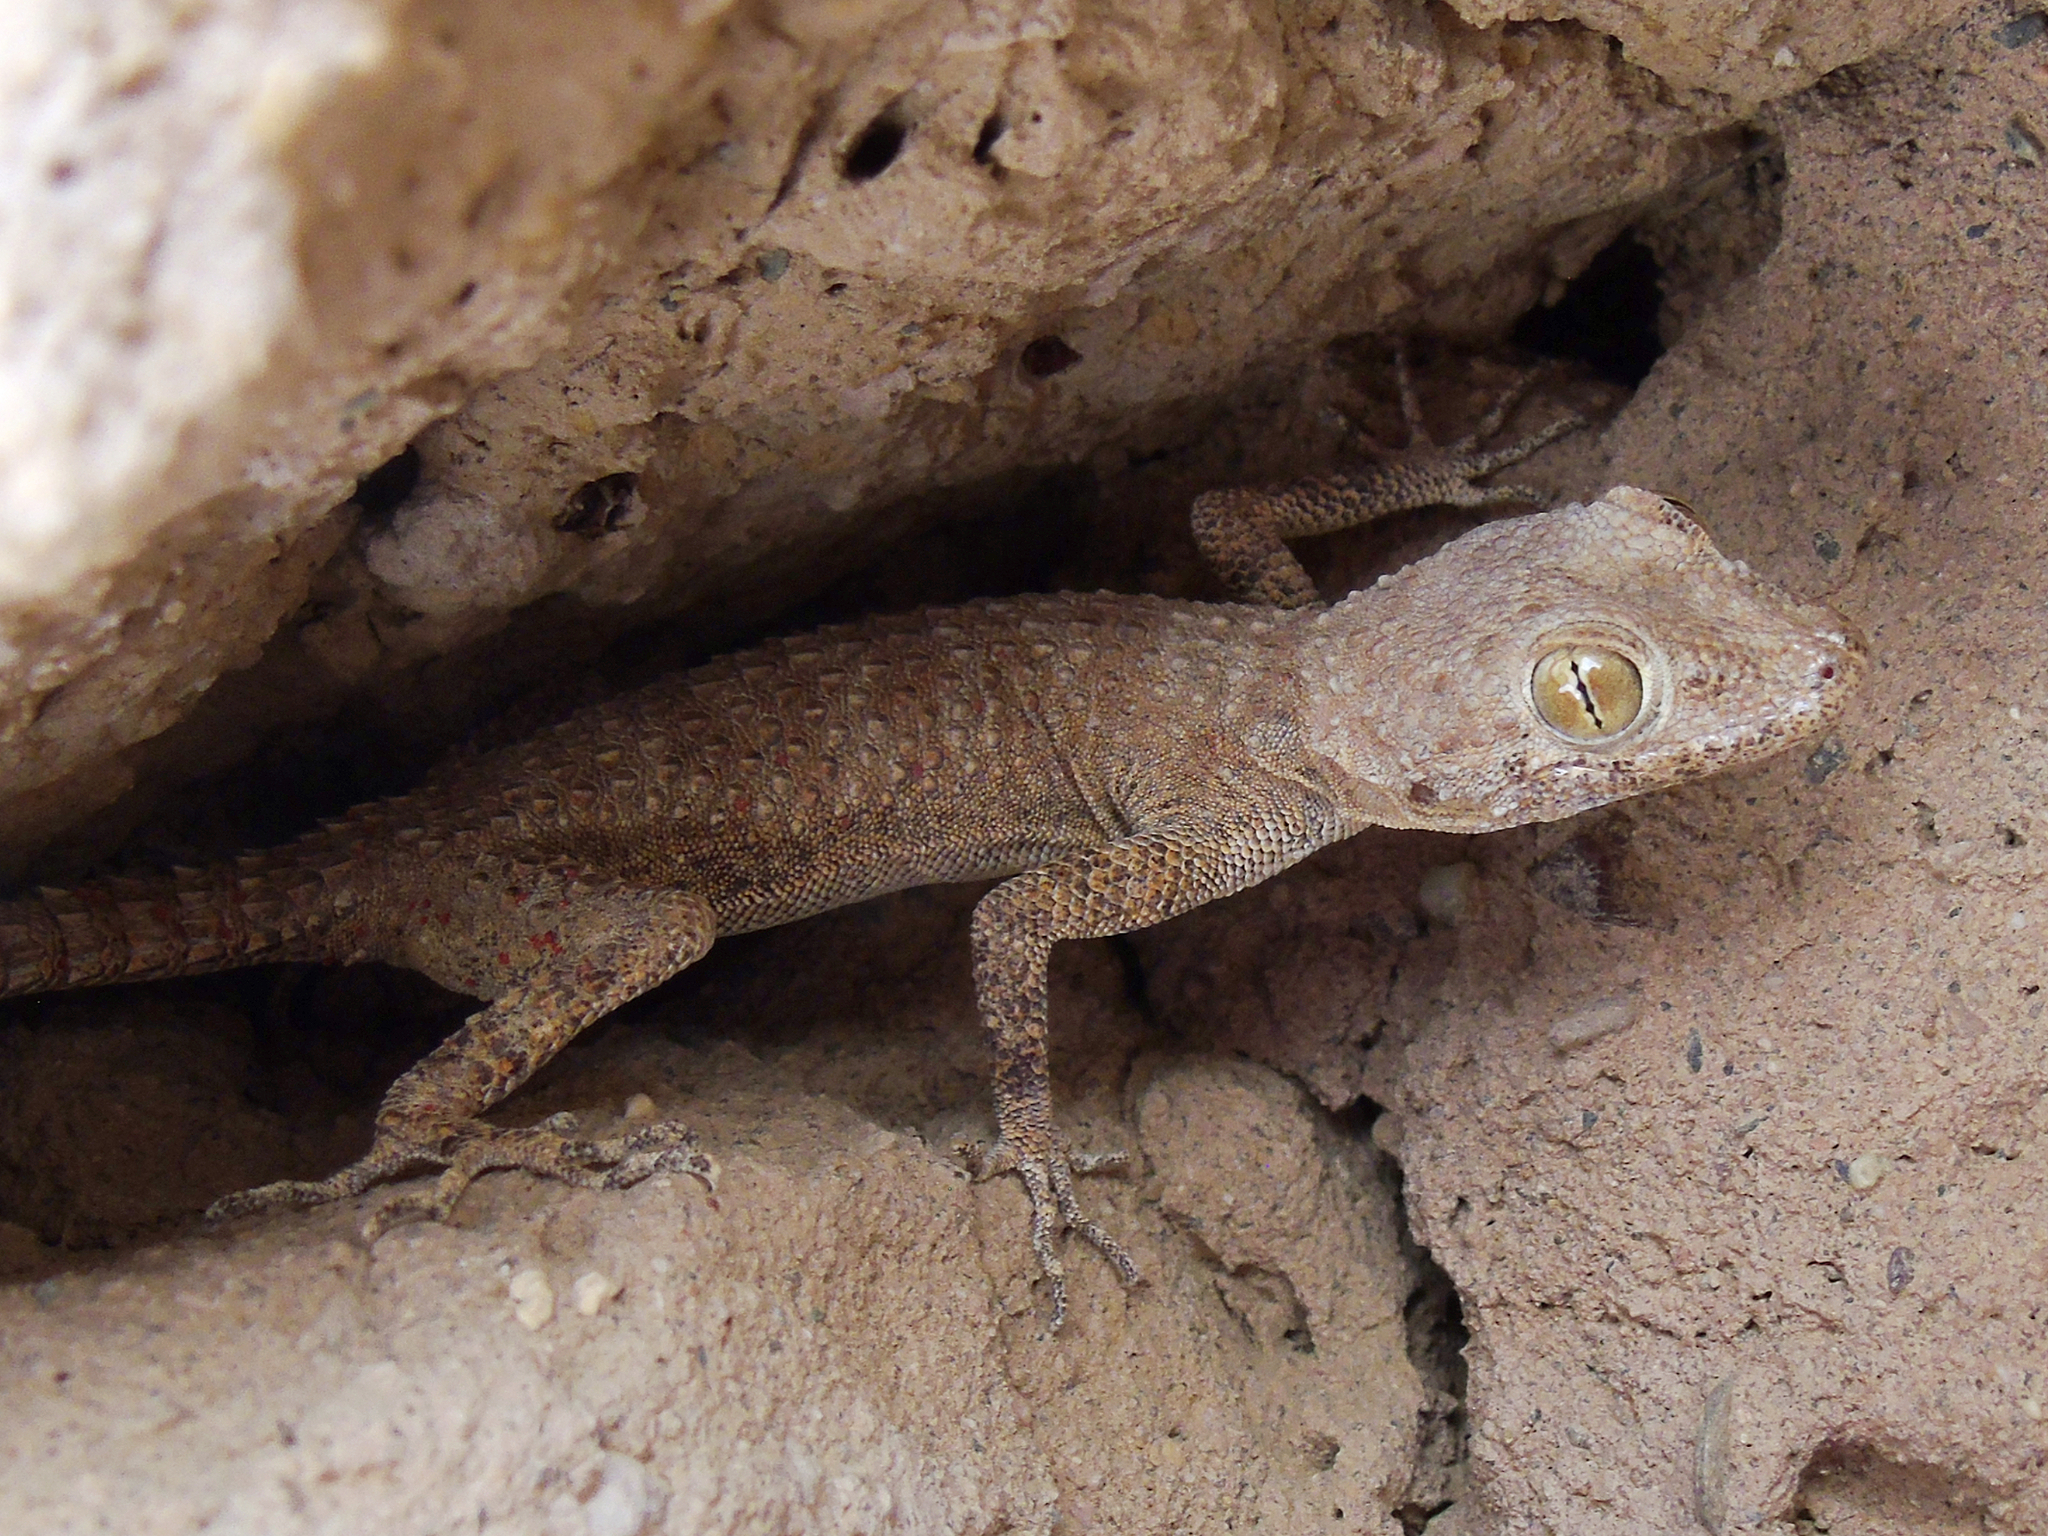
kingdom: Animalia
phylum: Chordata
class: Squamata
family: Gekkonidae
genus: Tenuidactylus
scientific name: Tenuidactylus bogdanovi
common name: Bogdanov’s thin-toed gecko
